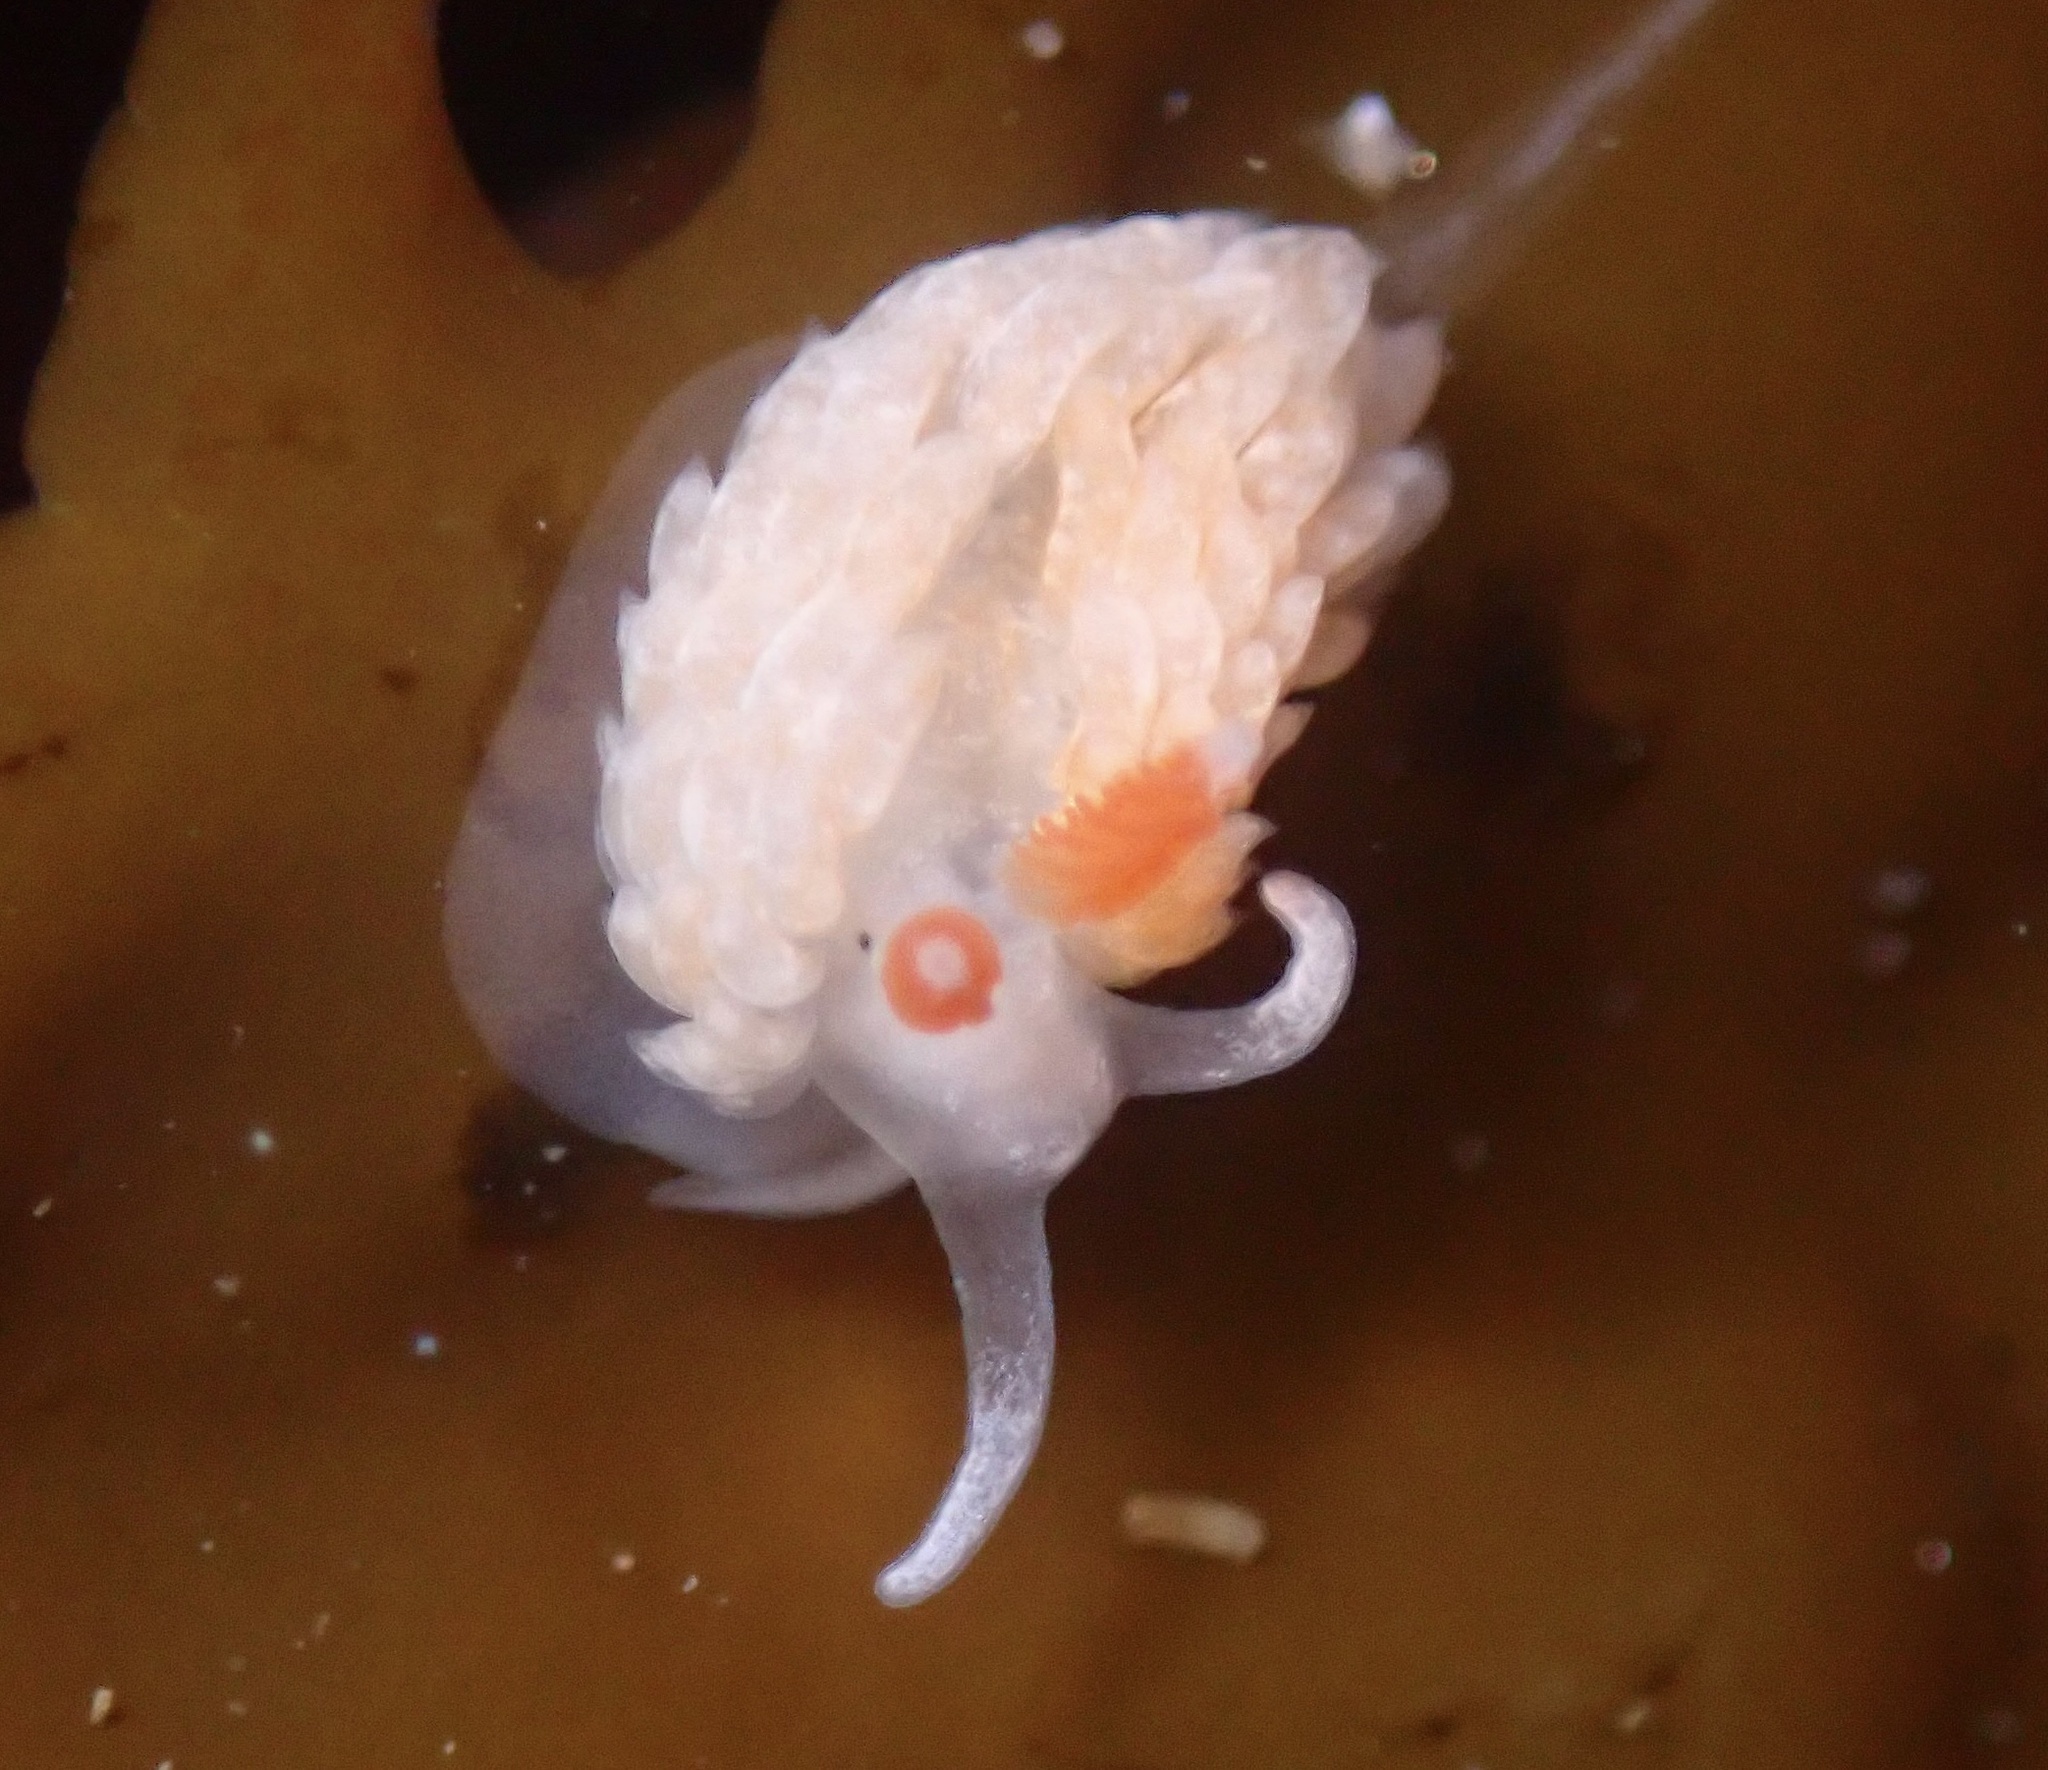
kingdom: Animalia
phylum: Mollusca
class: Gastropoda
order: Nudibranchia
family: Aeolidiidae
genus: Anteaeolidiella
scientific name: Anteaeolidiella oliviae
